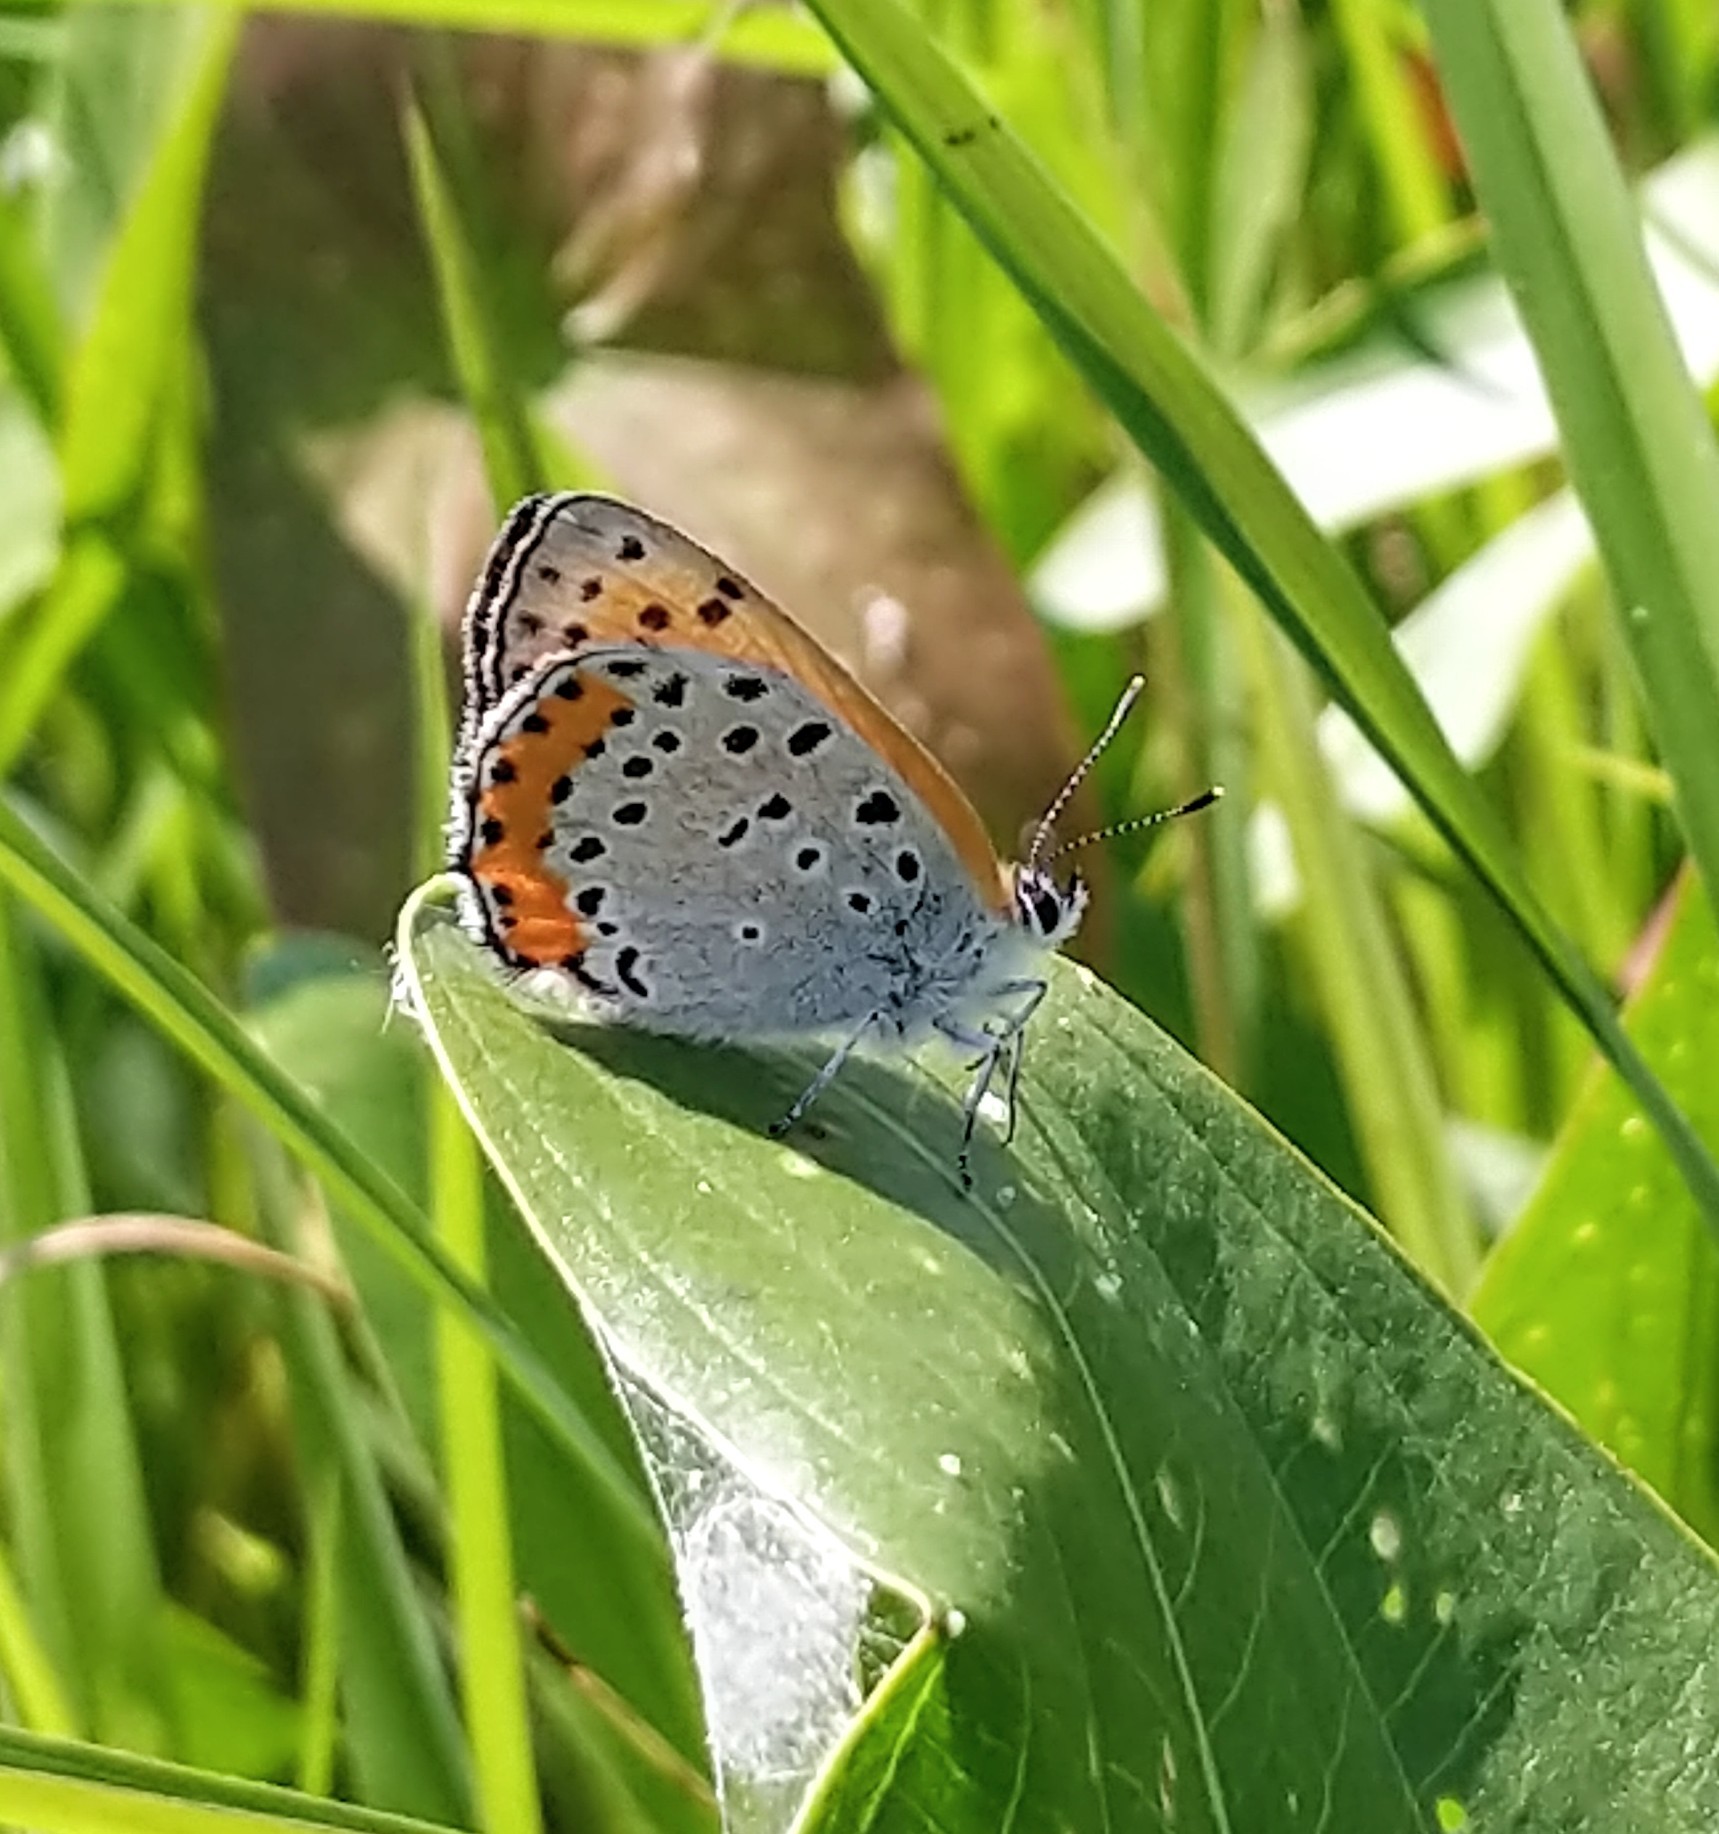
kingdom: Animalia
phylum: Arthropoda
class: Insecta
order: Lepidoptera
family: Lycaenidae
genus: Tharsalea
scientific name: Tharsalea hyllus
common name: Bronze copper
